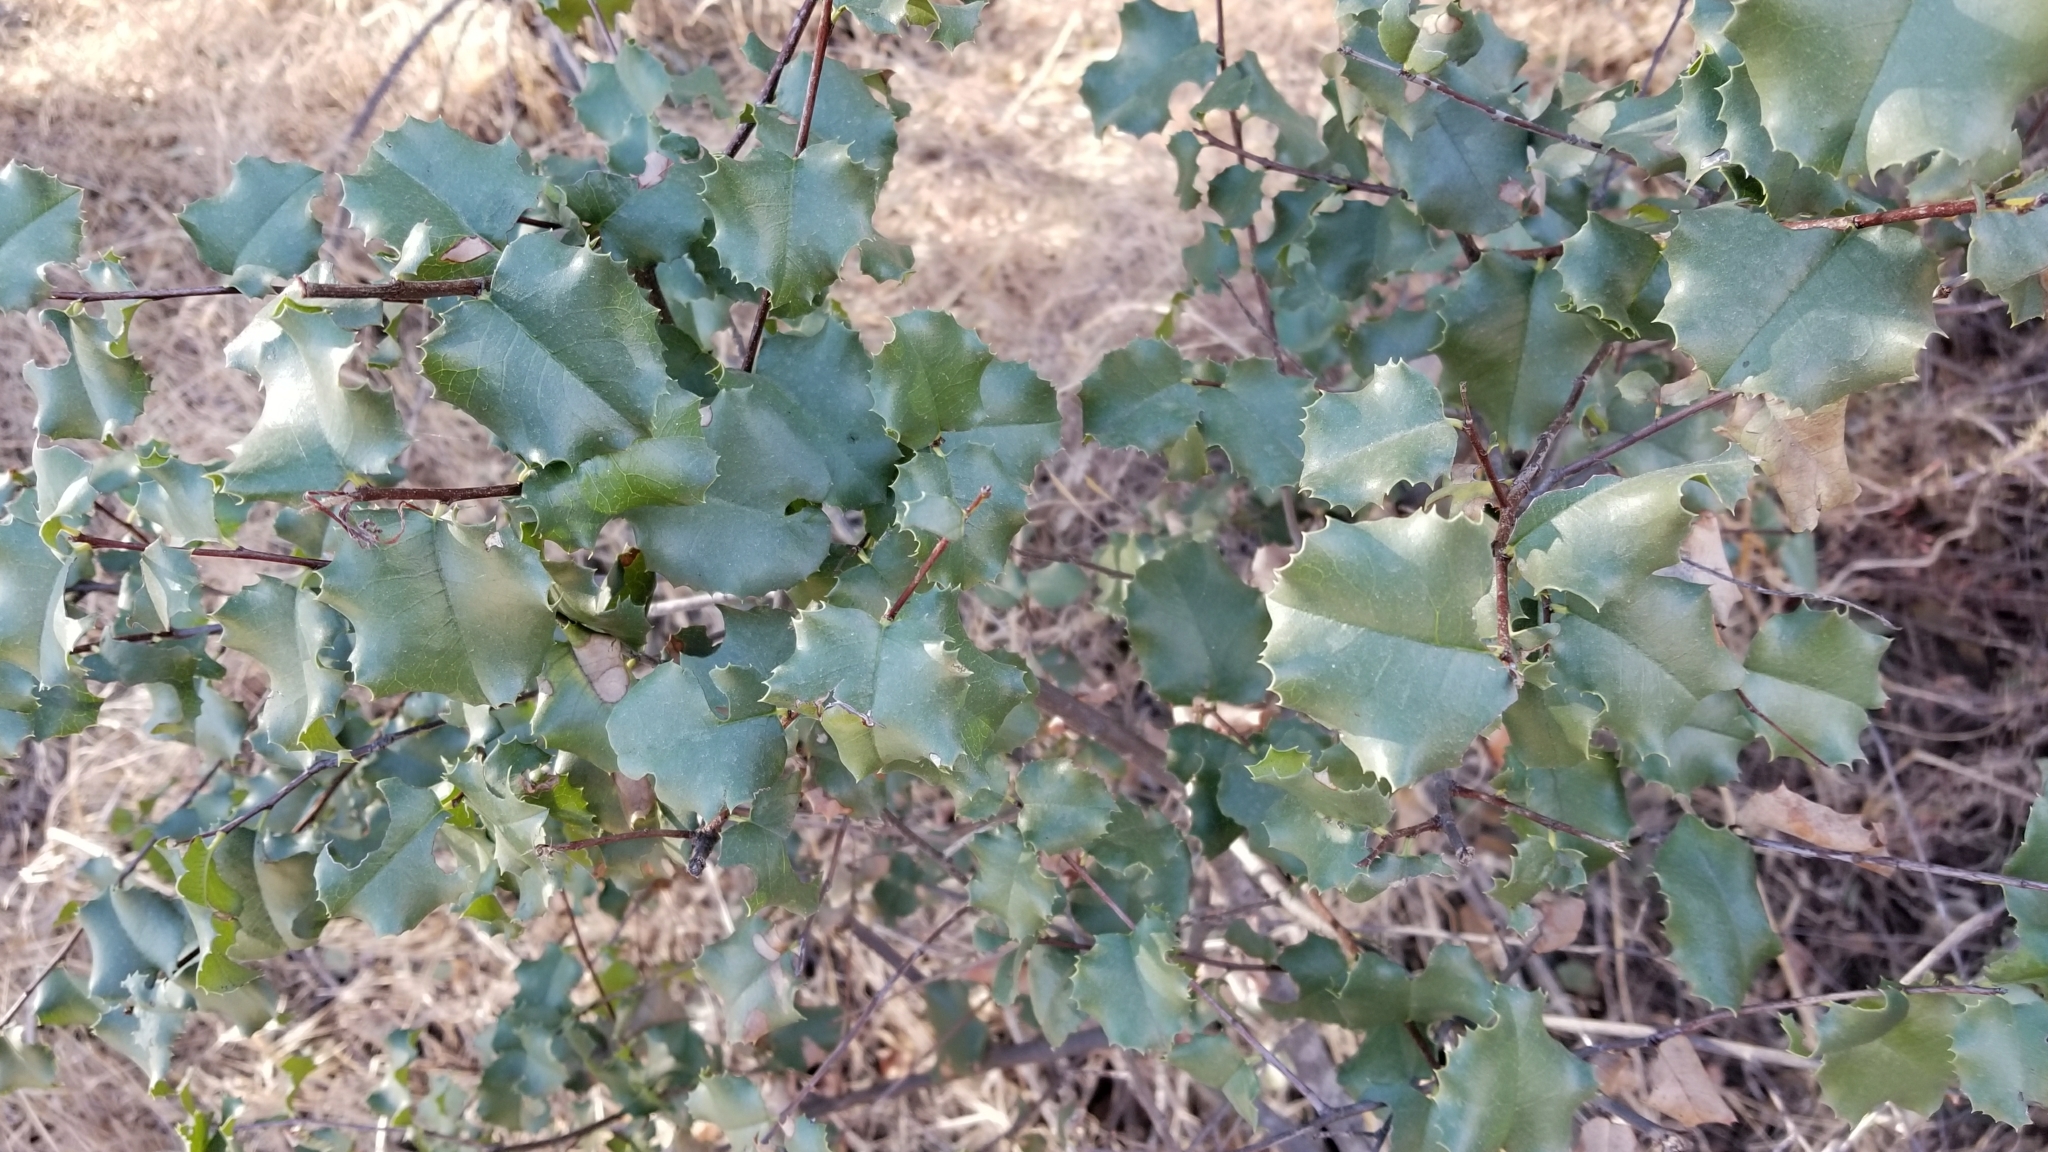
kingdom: Plantae
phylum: Tracheophyta
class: Magnoliopsida
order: Rosales
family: Rosaceae
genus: Prunus
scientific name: Prunus ilicifolia
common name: Hollyleaf cherry
